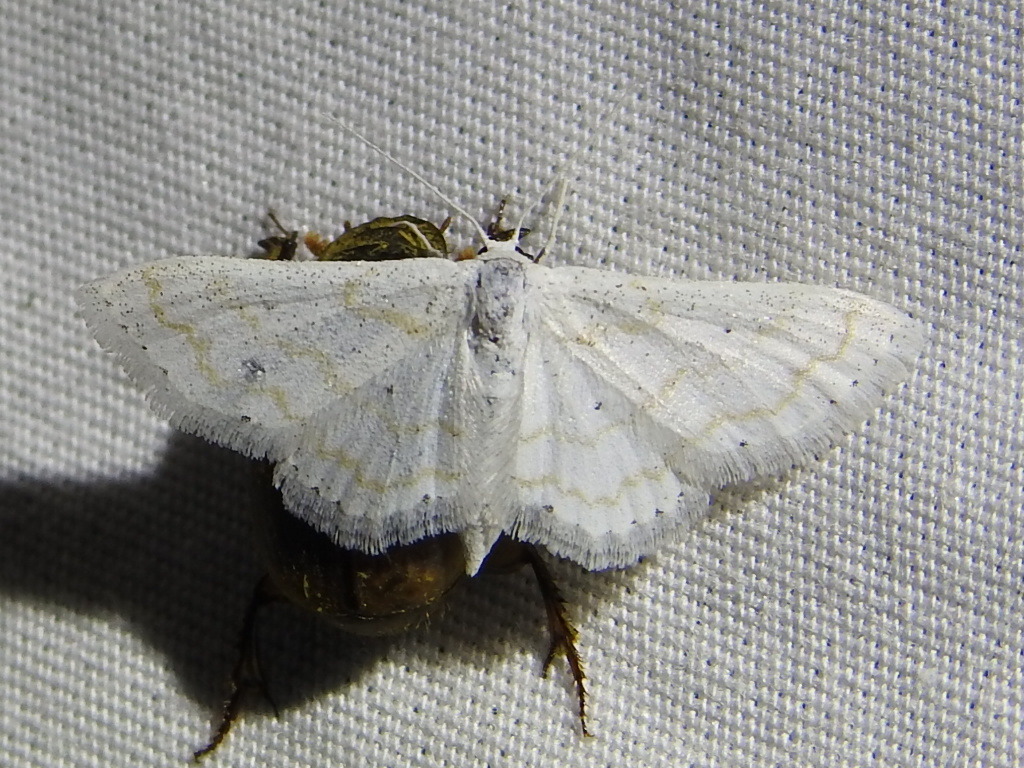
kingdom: Animalia
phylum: Arthropoda
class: Insecta
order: Lepidoptera
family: Geometridae
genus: Lobocleta
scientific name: Lobocleta peralbata
